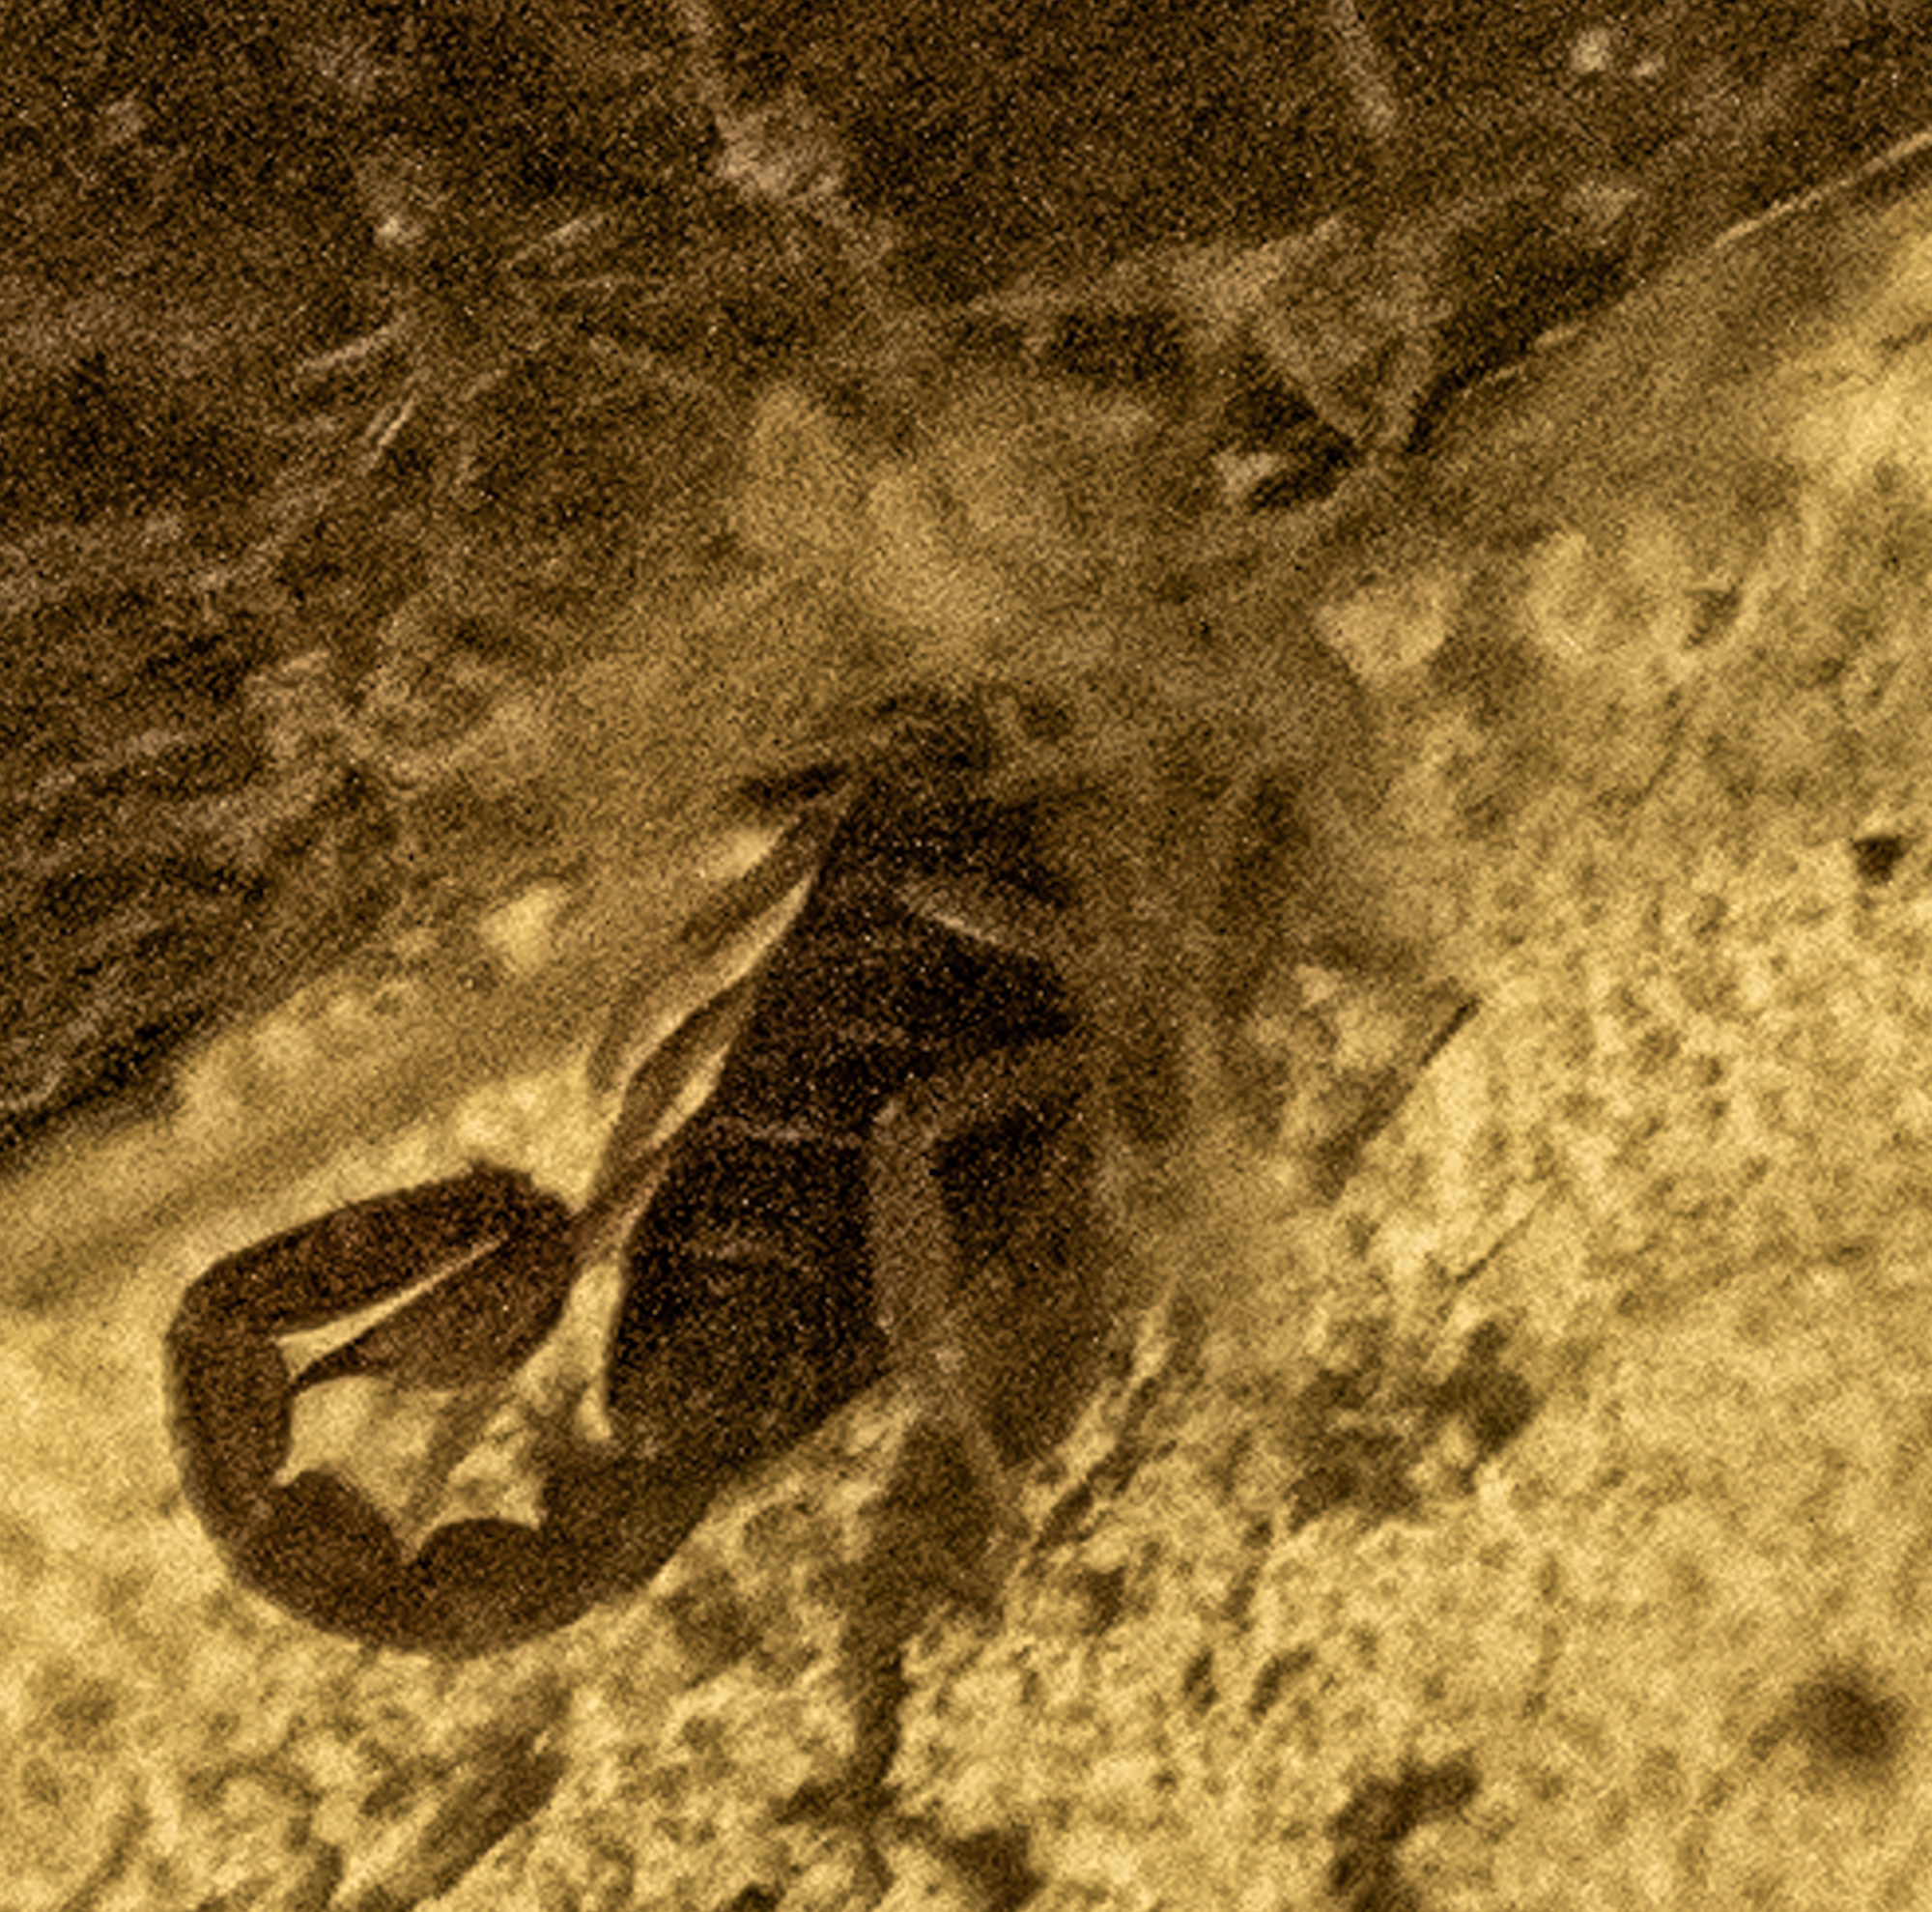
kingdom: Animalia
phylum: Arthropoda
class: Arachnida
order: Scorpiones
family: Chactidae
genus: Uroctonus
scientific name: Uroctonus mordax
